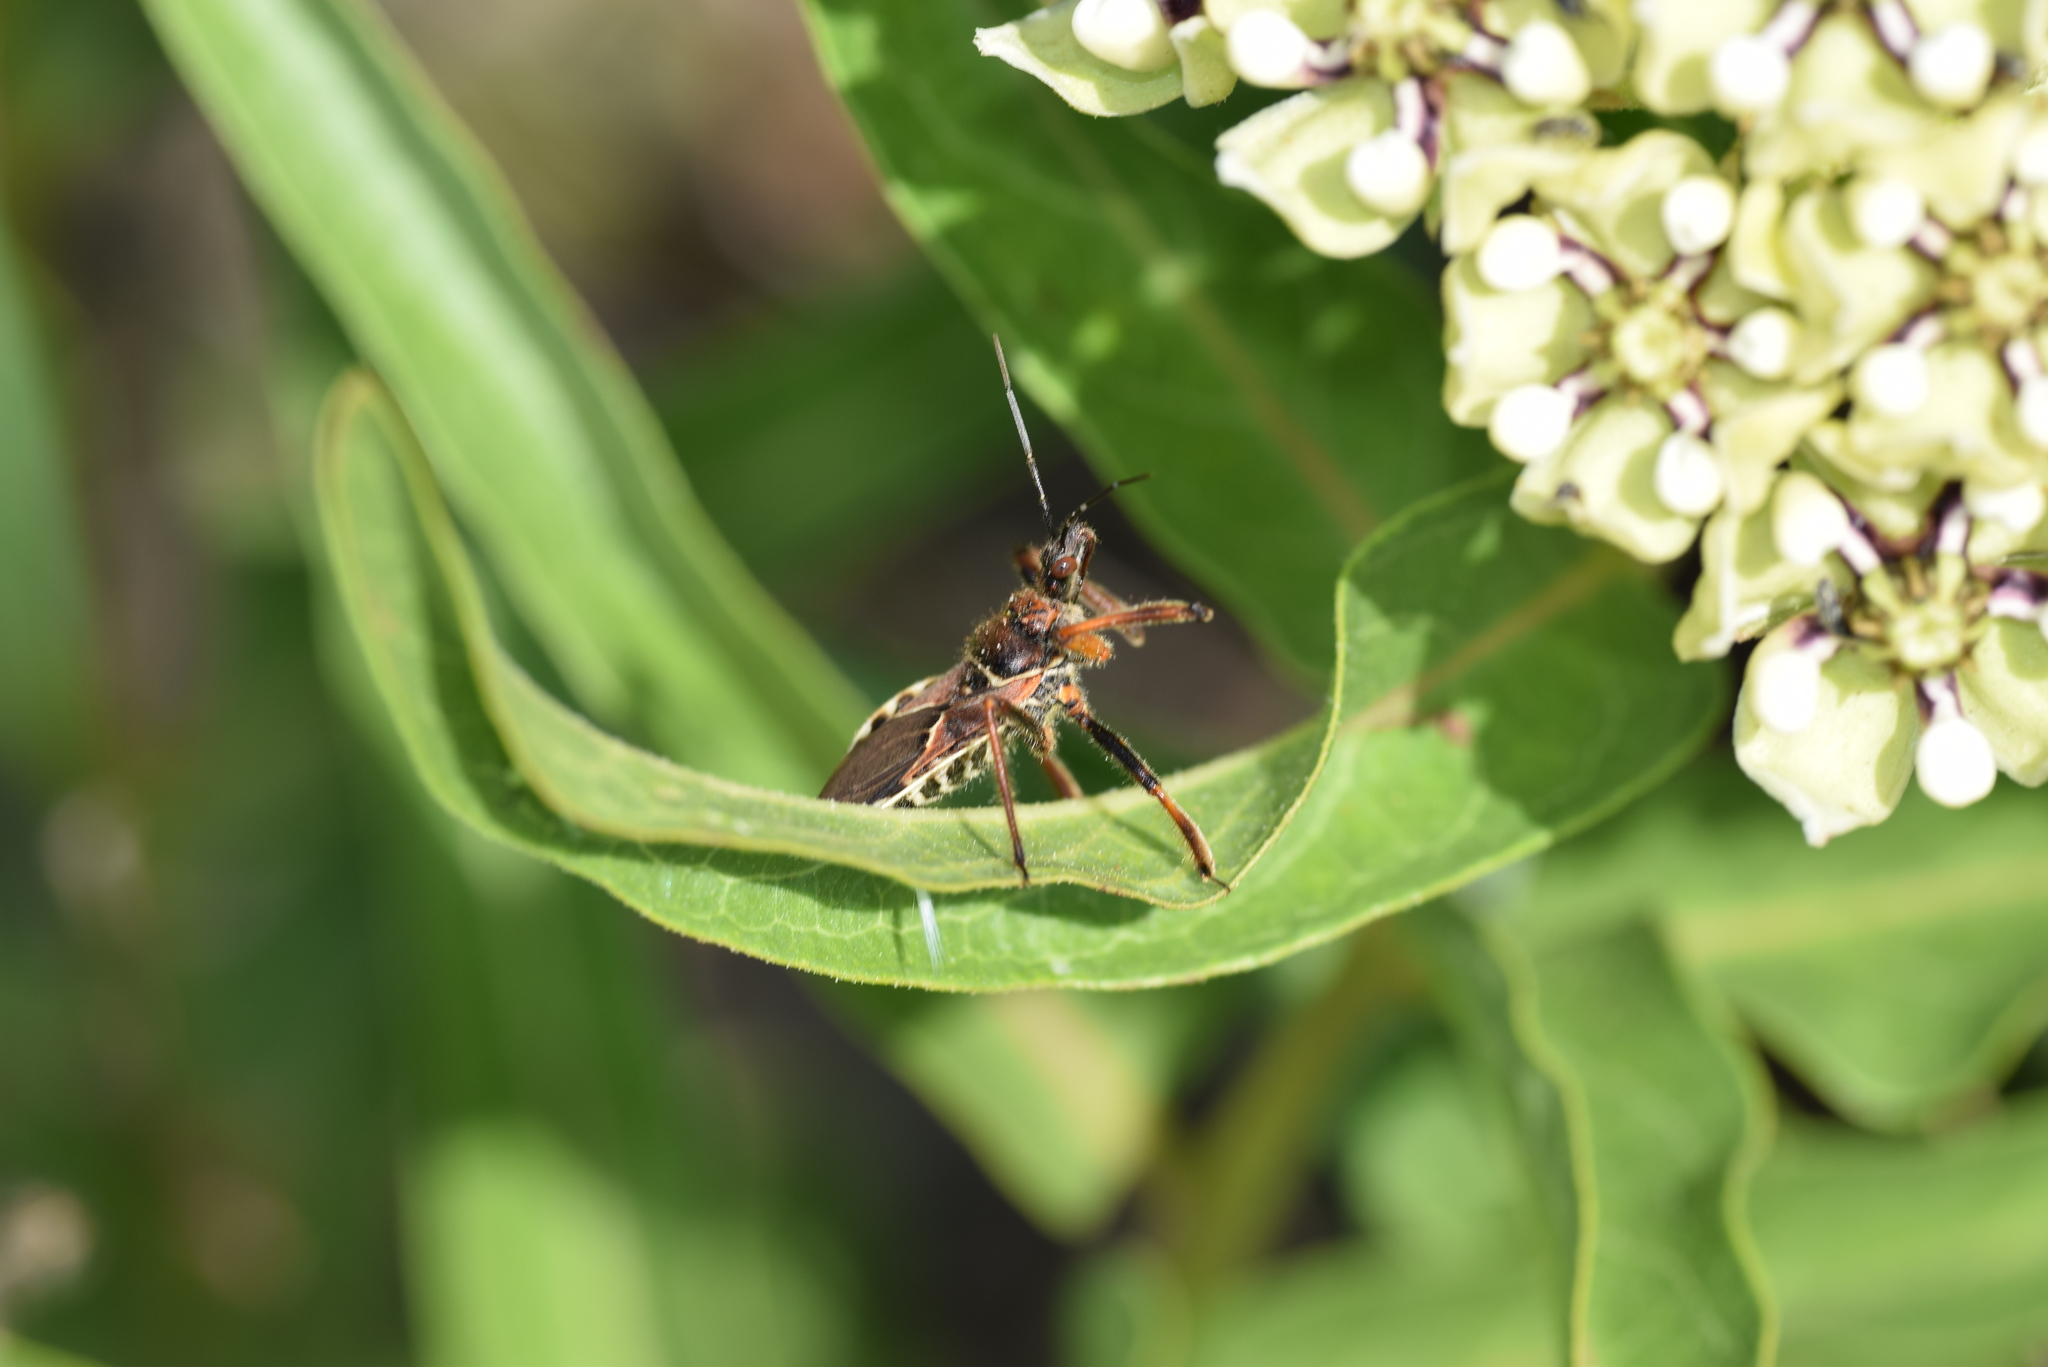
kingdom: Animalia
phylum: Arthropoda
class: Insecta
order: Hemiptera
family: Reduviidae
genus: Apiomerus
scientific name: Apiomerus spissipes
